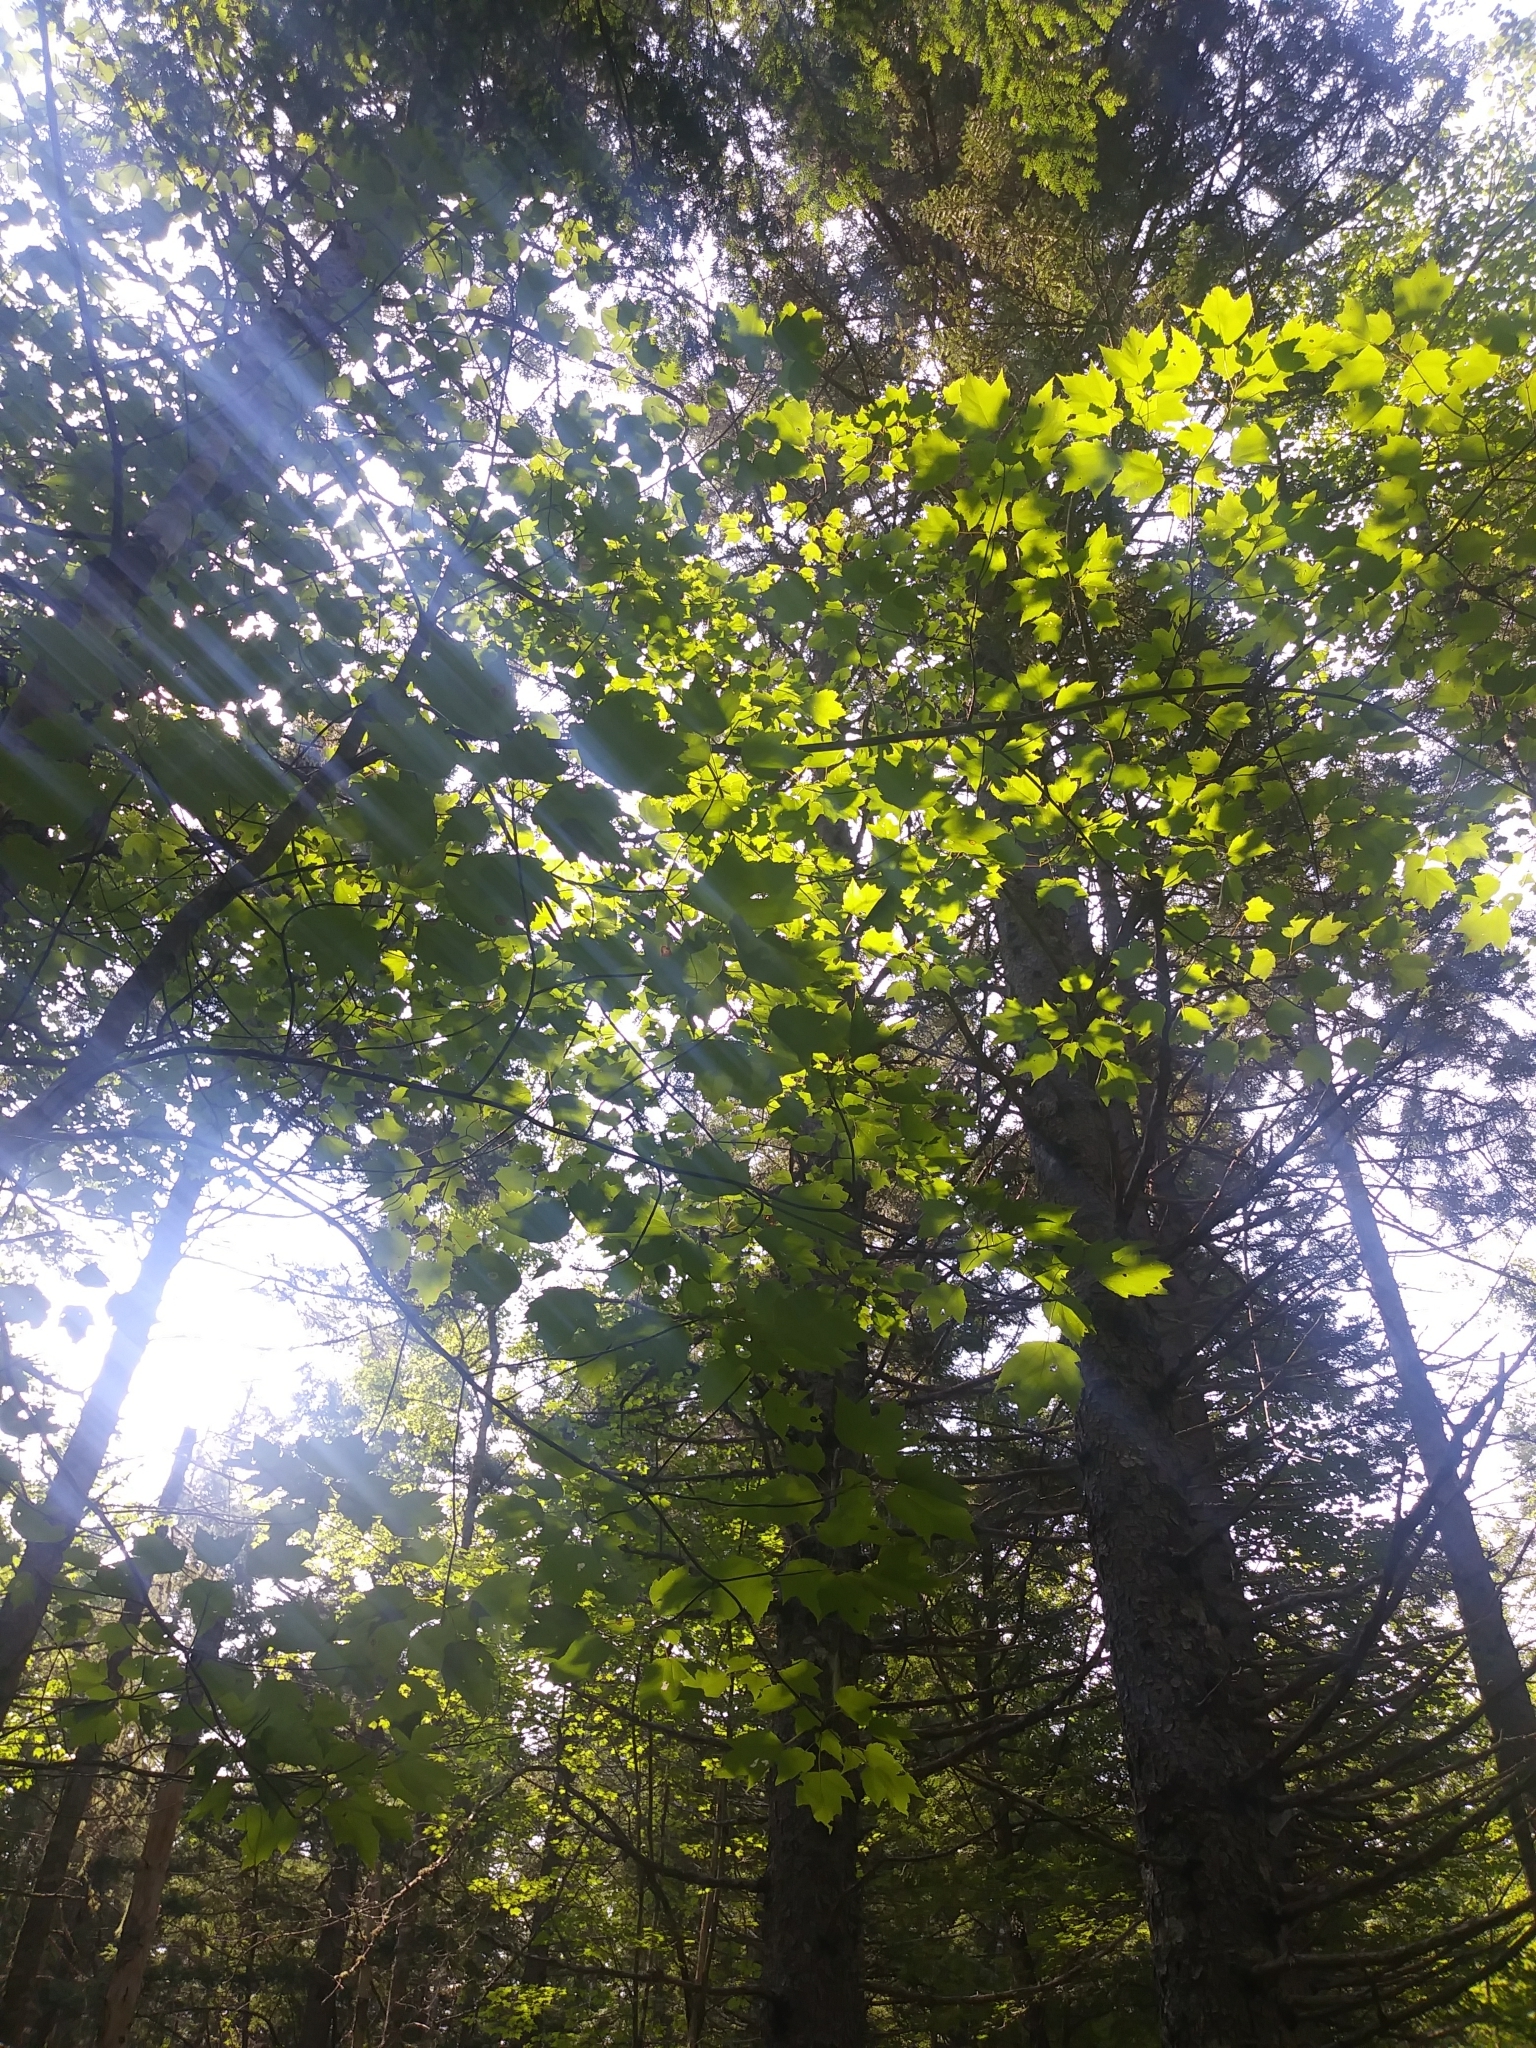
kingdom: Plantae
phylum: Tracheophyta
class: Magnoliopsida
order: Sapindales
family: Sapindaceae
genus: Acer
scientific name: Acer rubrum
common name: Red maple
